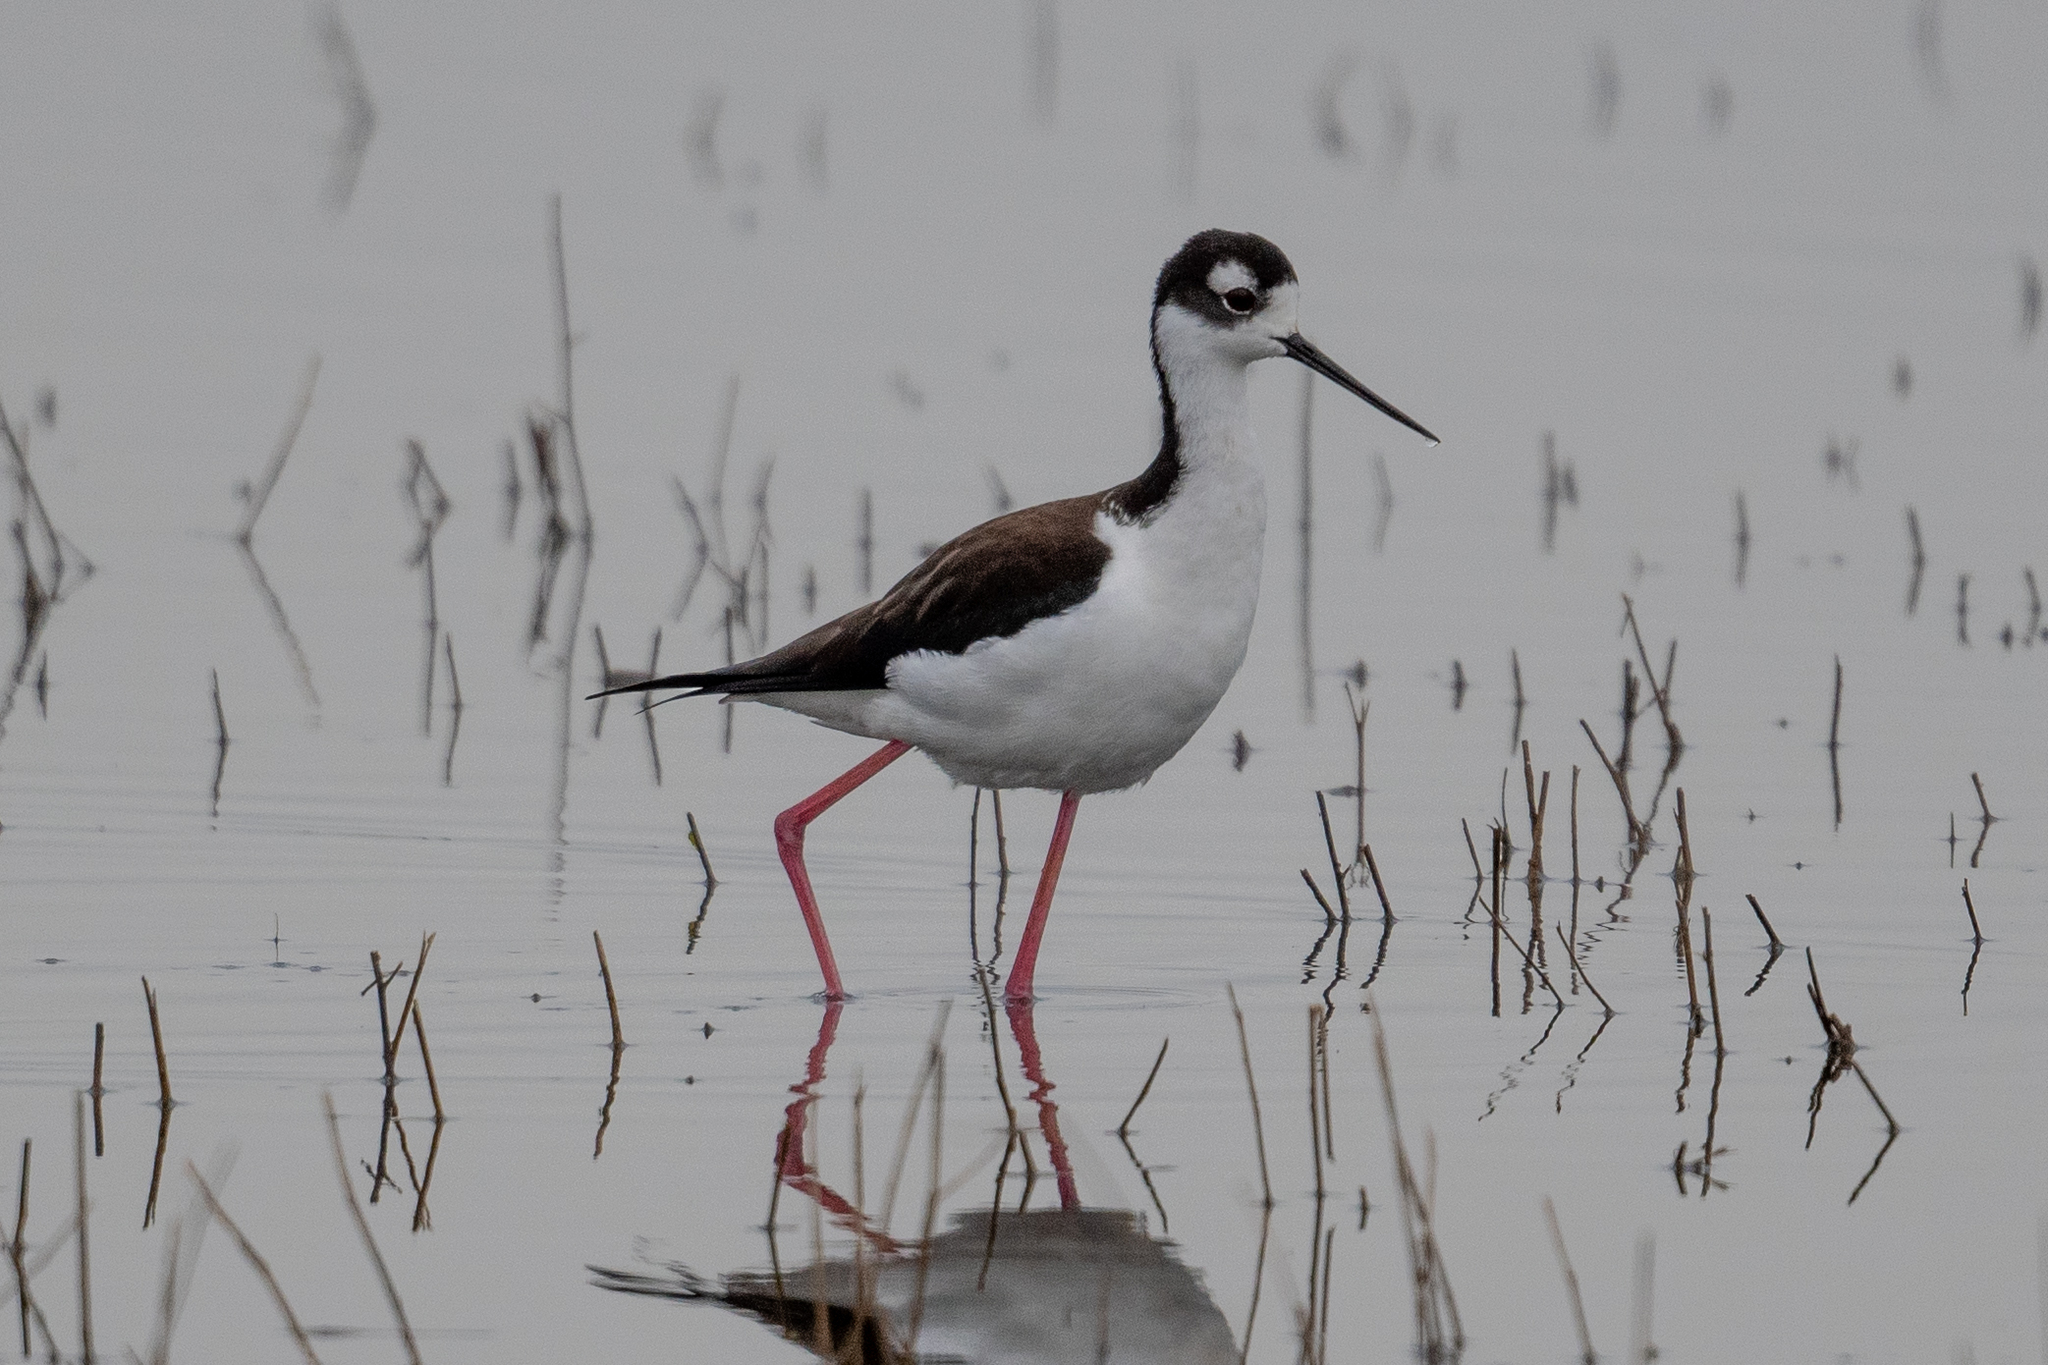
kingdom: Animalia
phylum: Chordata
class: Aves
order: Charadriiformes
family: Recurvirostridae
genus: Himantopus
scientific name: Himantopus mexicanus
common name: Black-necked stilt
